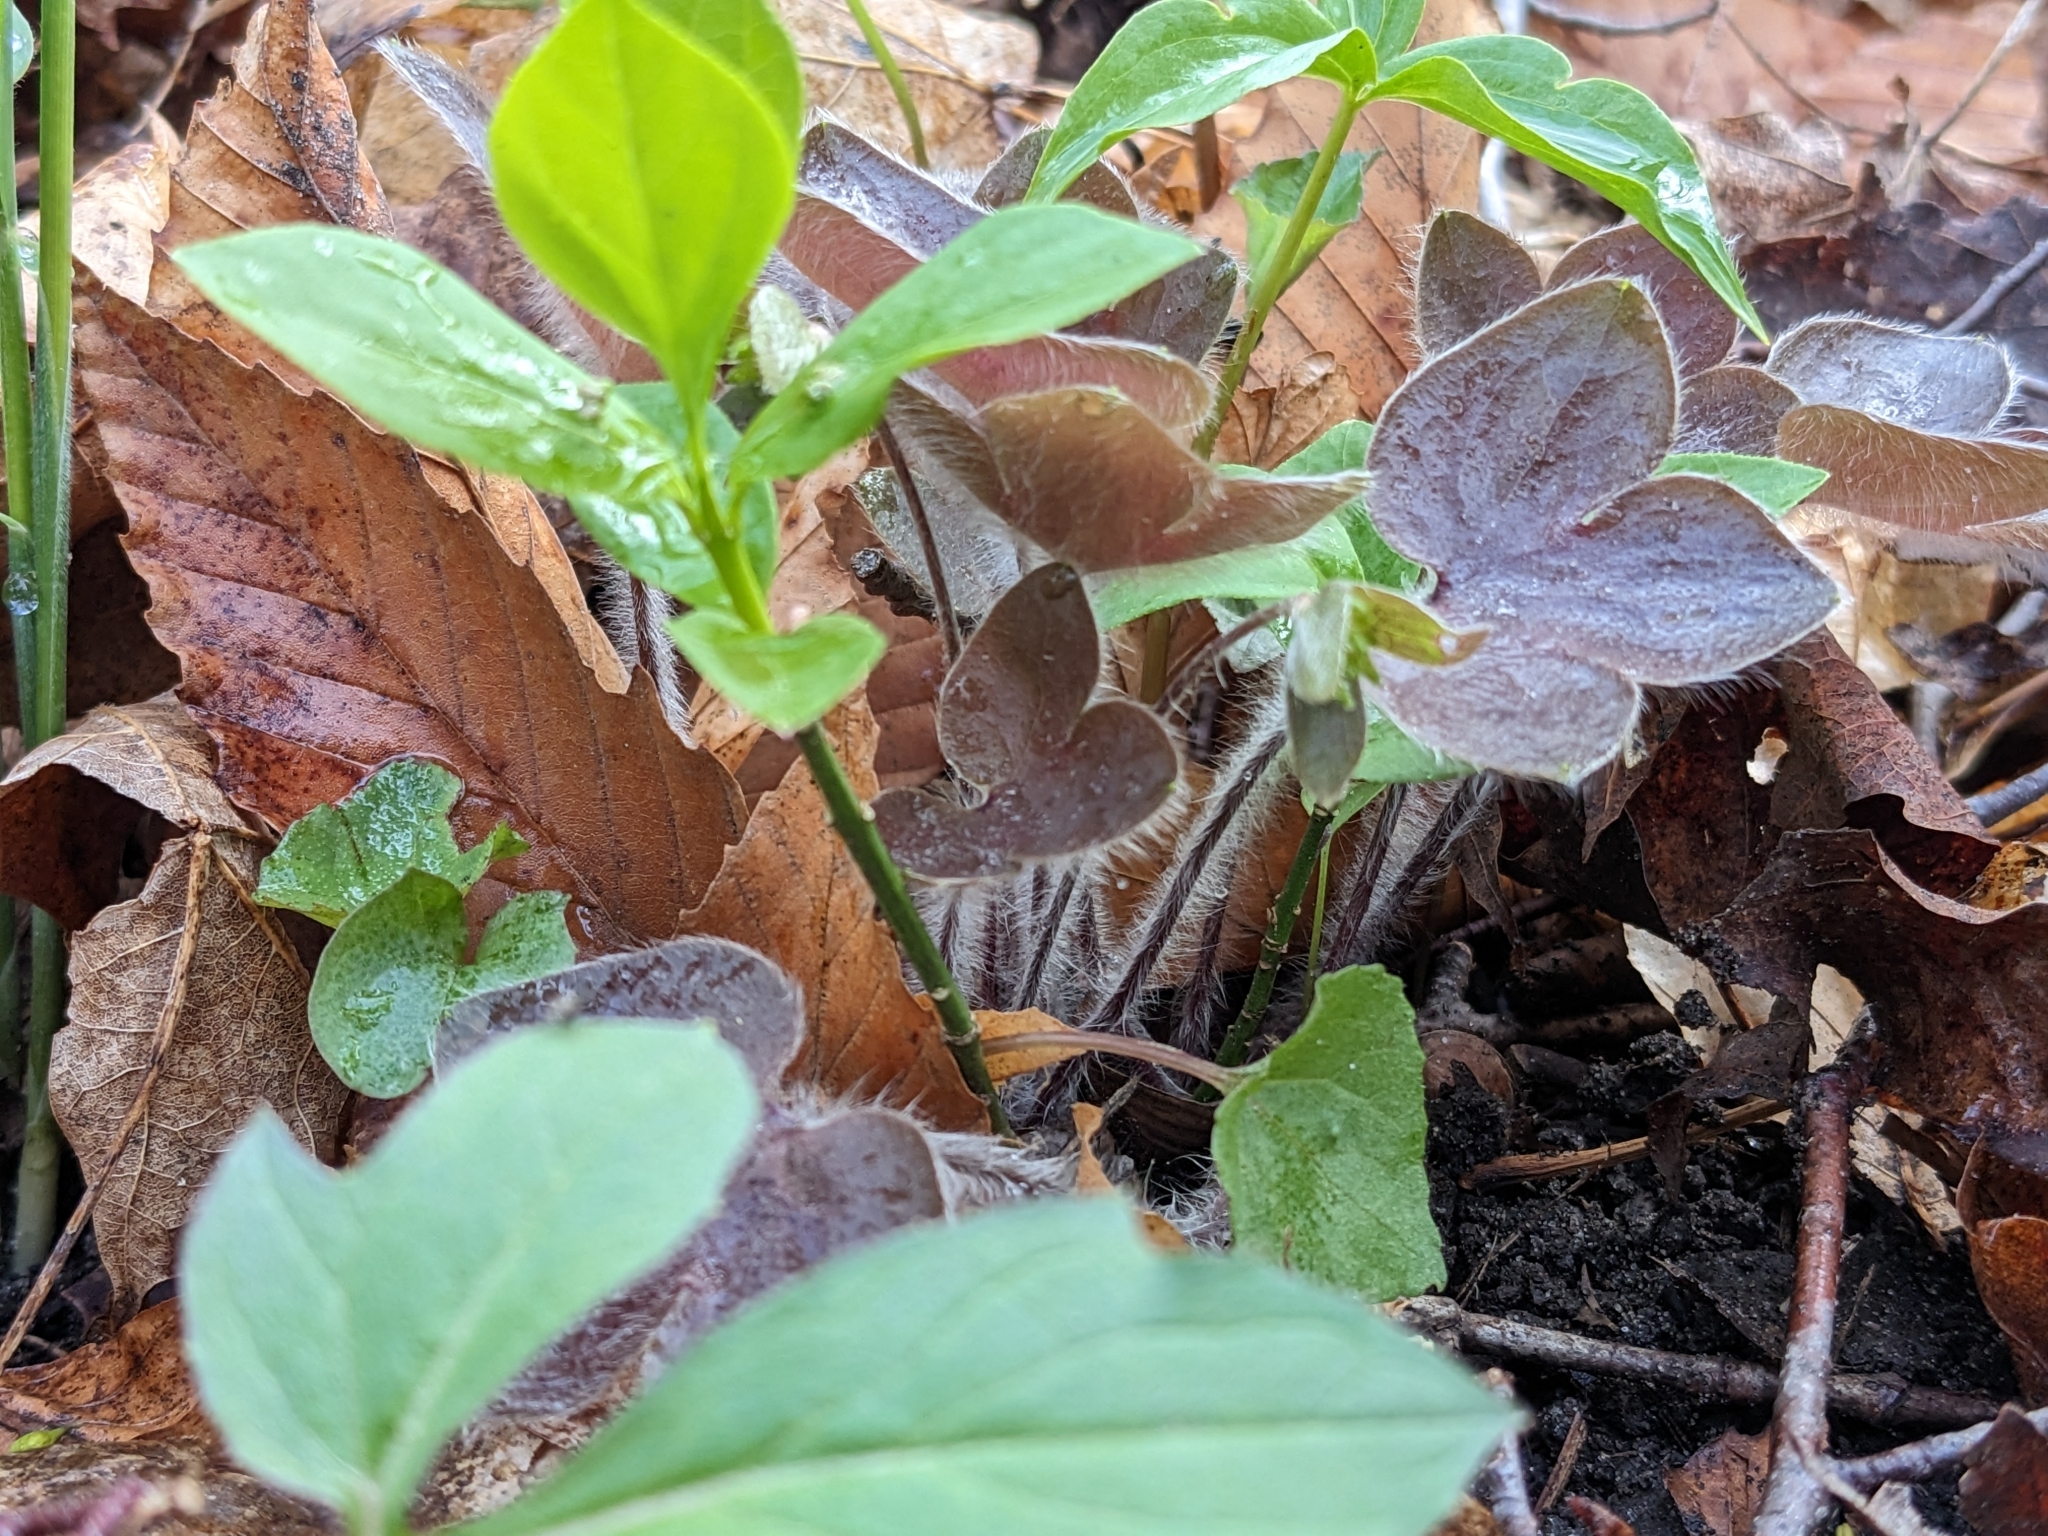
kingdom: Plantae
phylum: Tracheophyta
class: Magnoliopsida
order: Ranunculales
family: Ranunculaceae
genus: Hepatica
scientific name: Hepatica americana
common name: American hepatica
